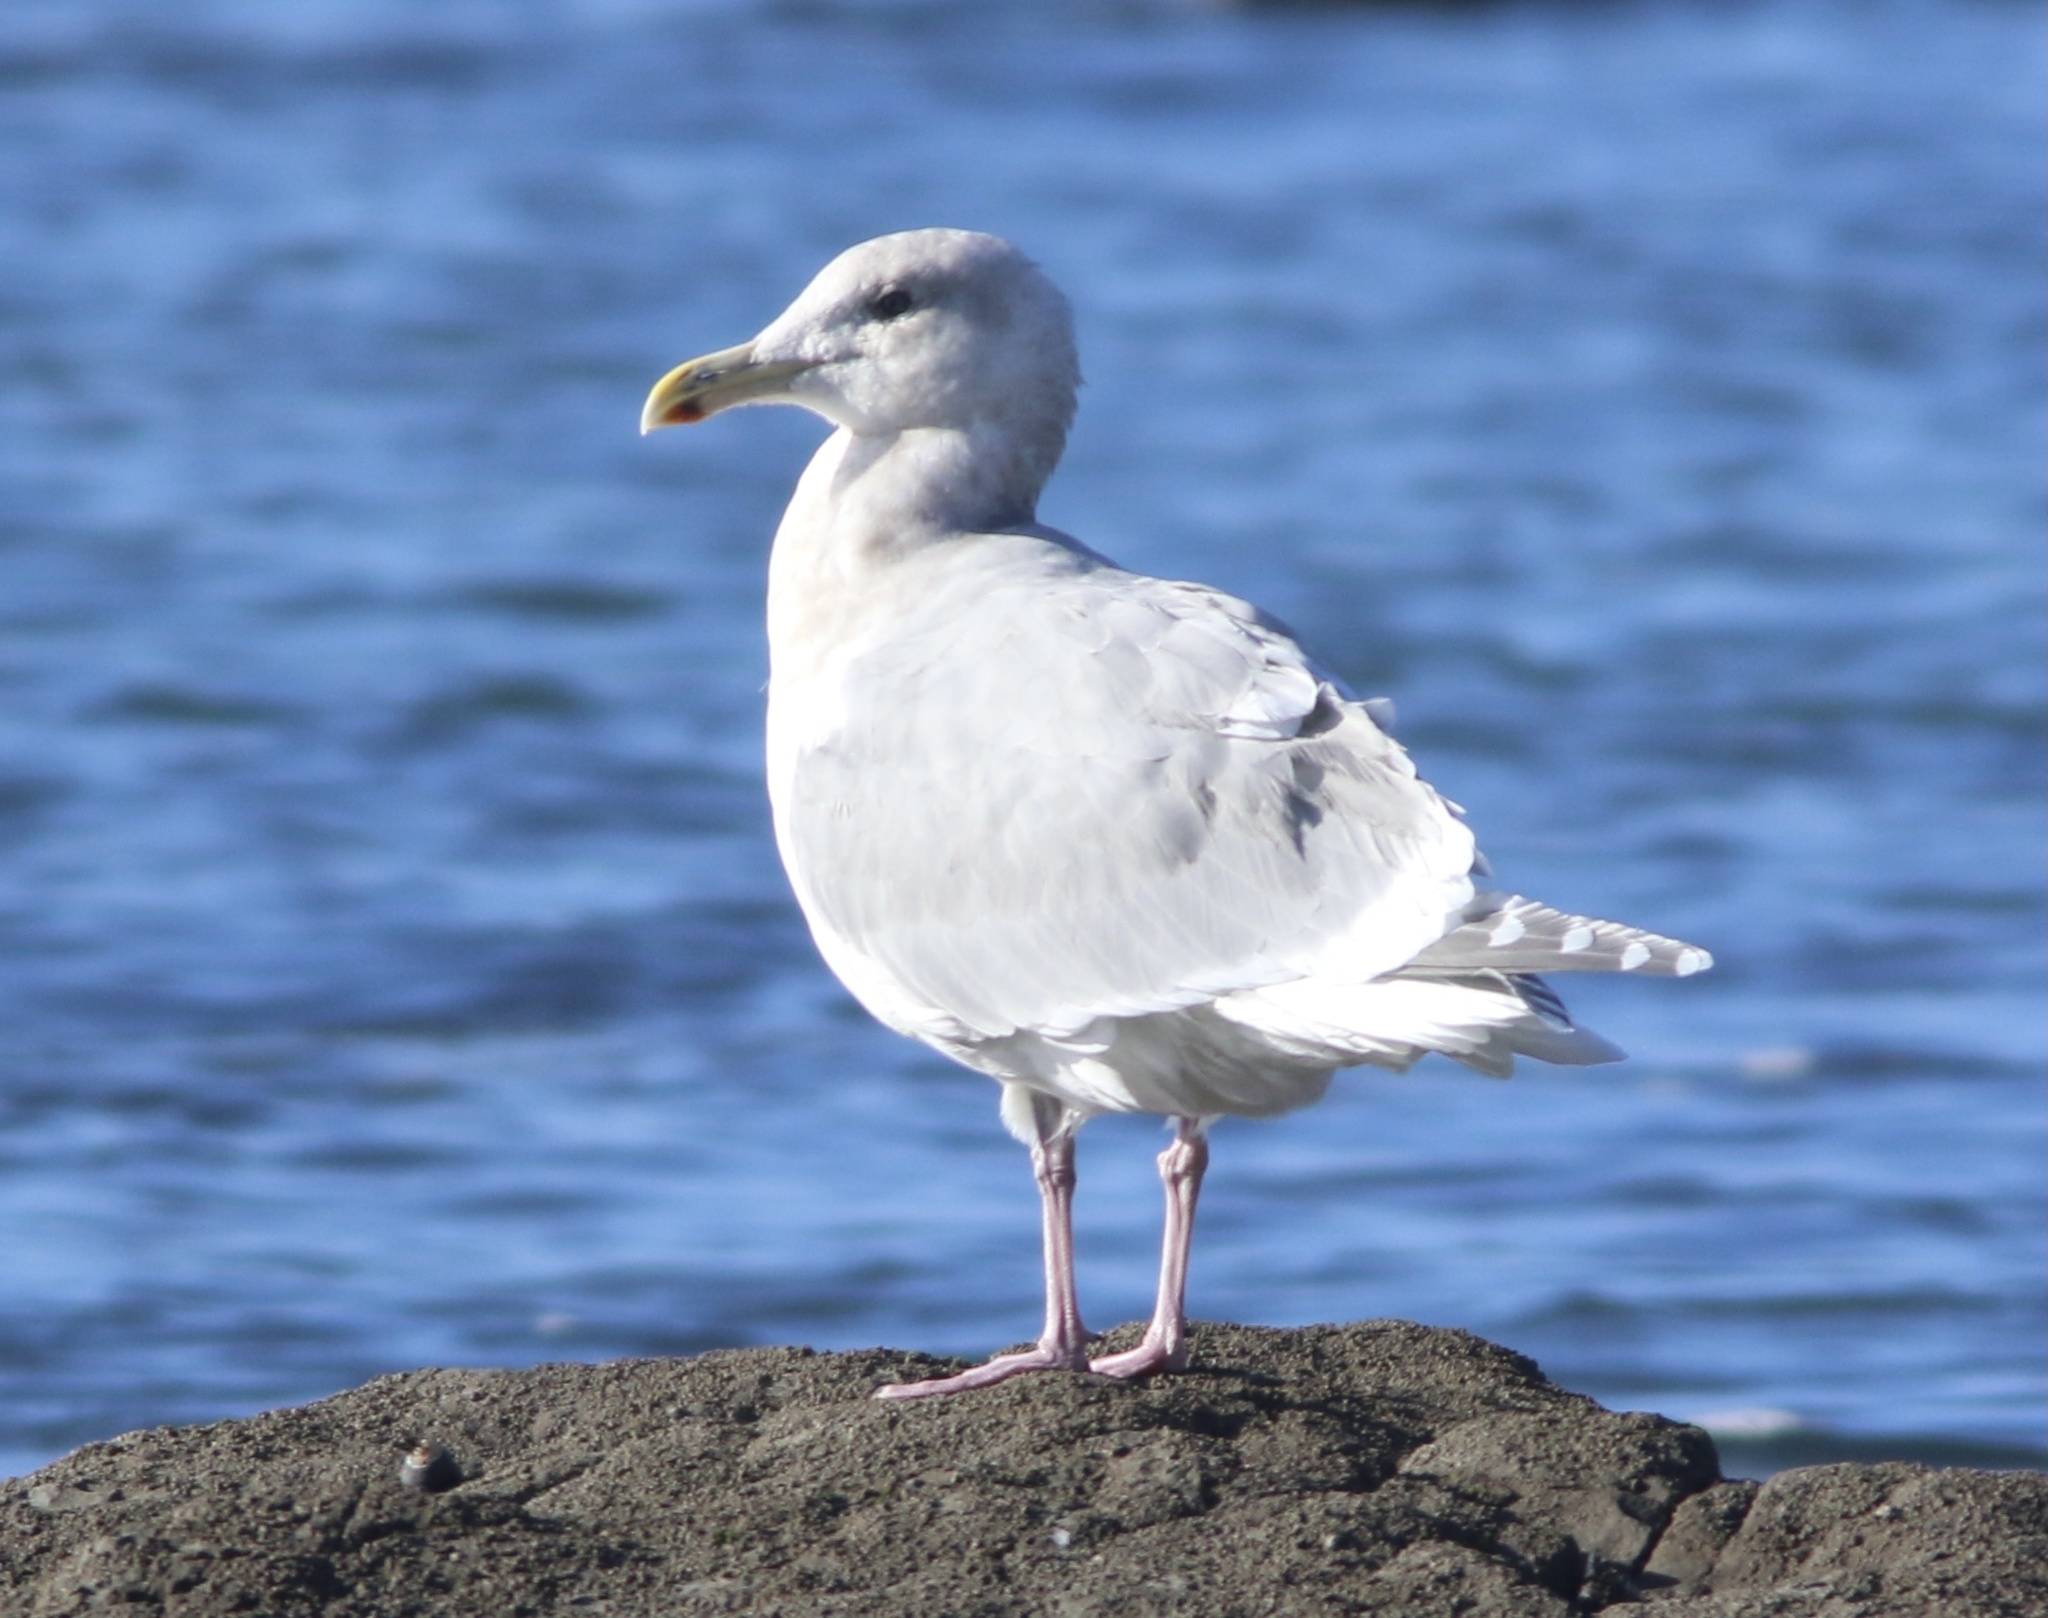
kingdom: Animalia
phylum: Chordata
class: Aves
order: Charadriiformes
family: Laridae
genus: Larus
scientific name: Larus glaucescens
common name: Glaucous-winged gull
